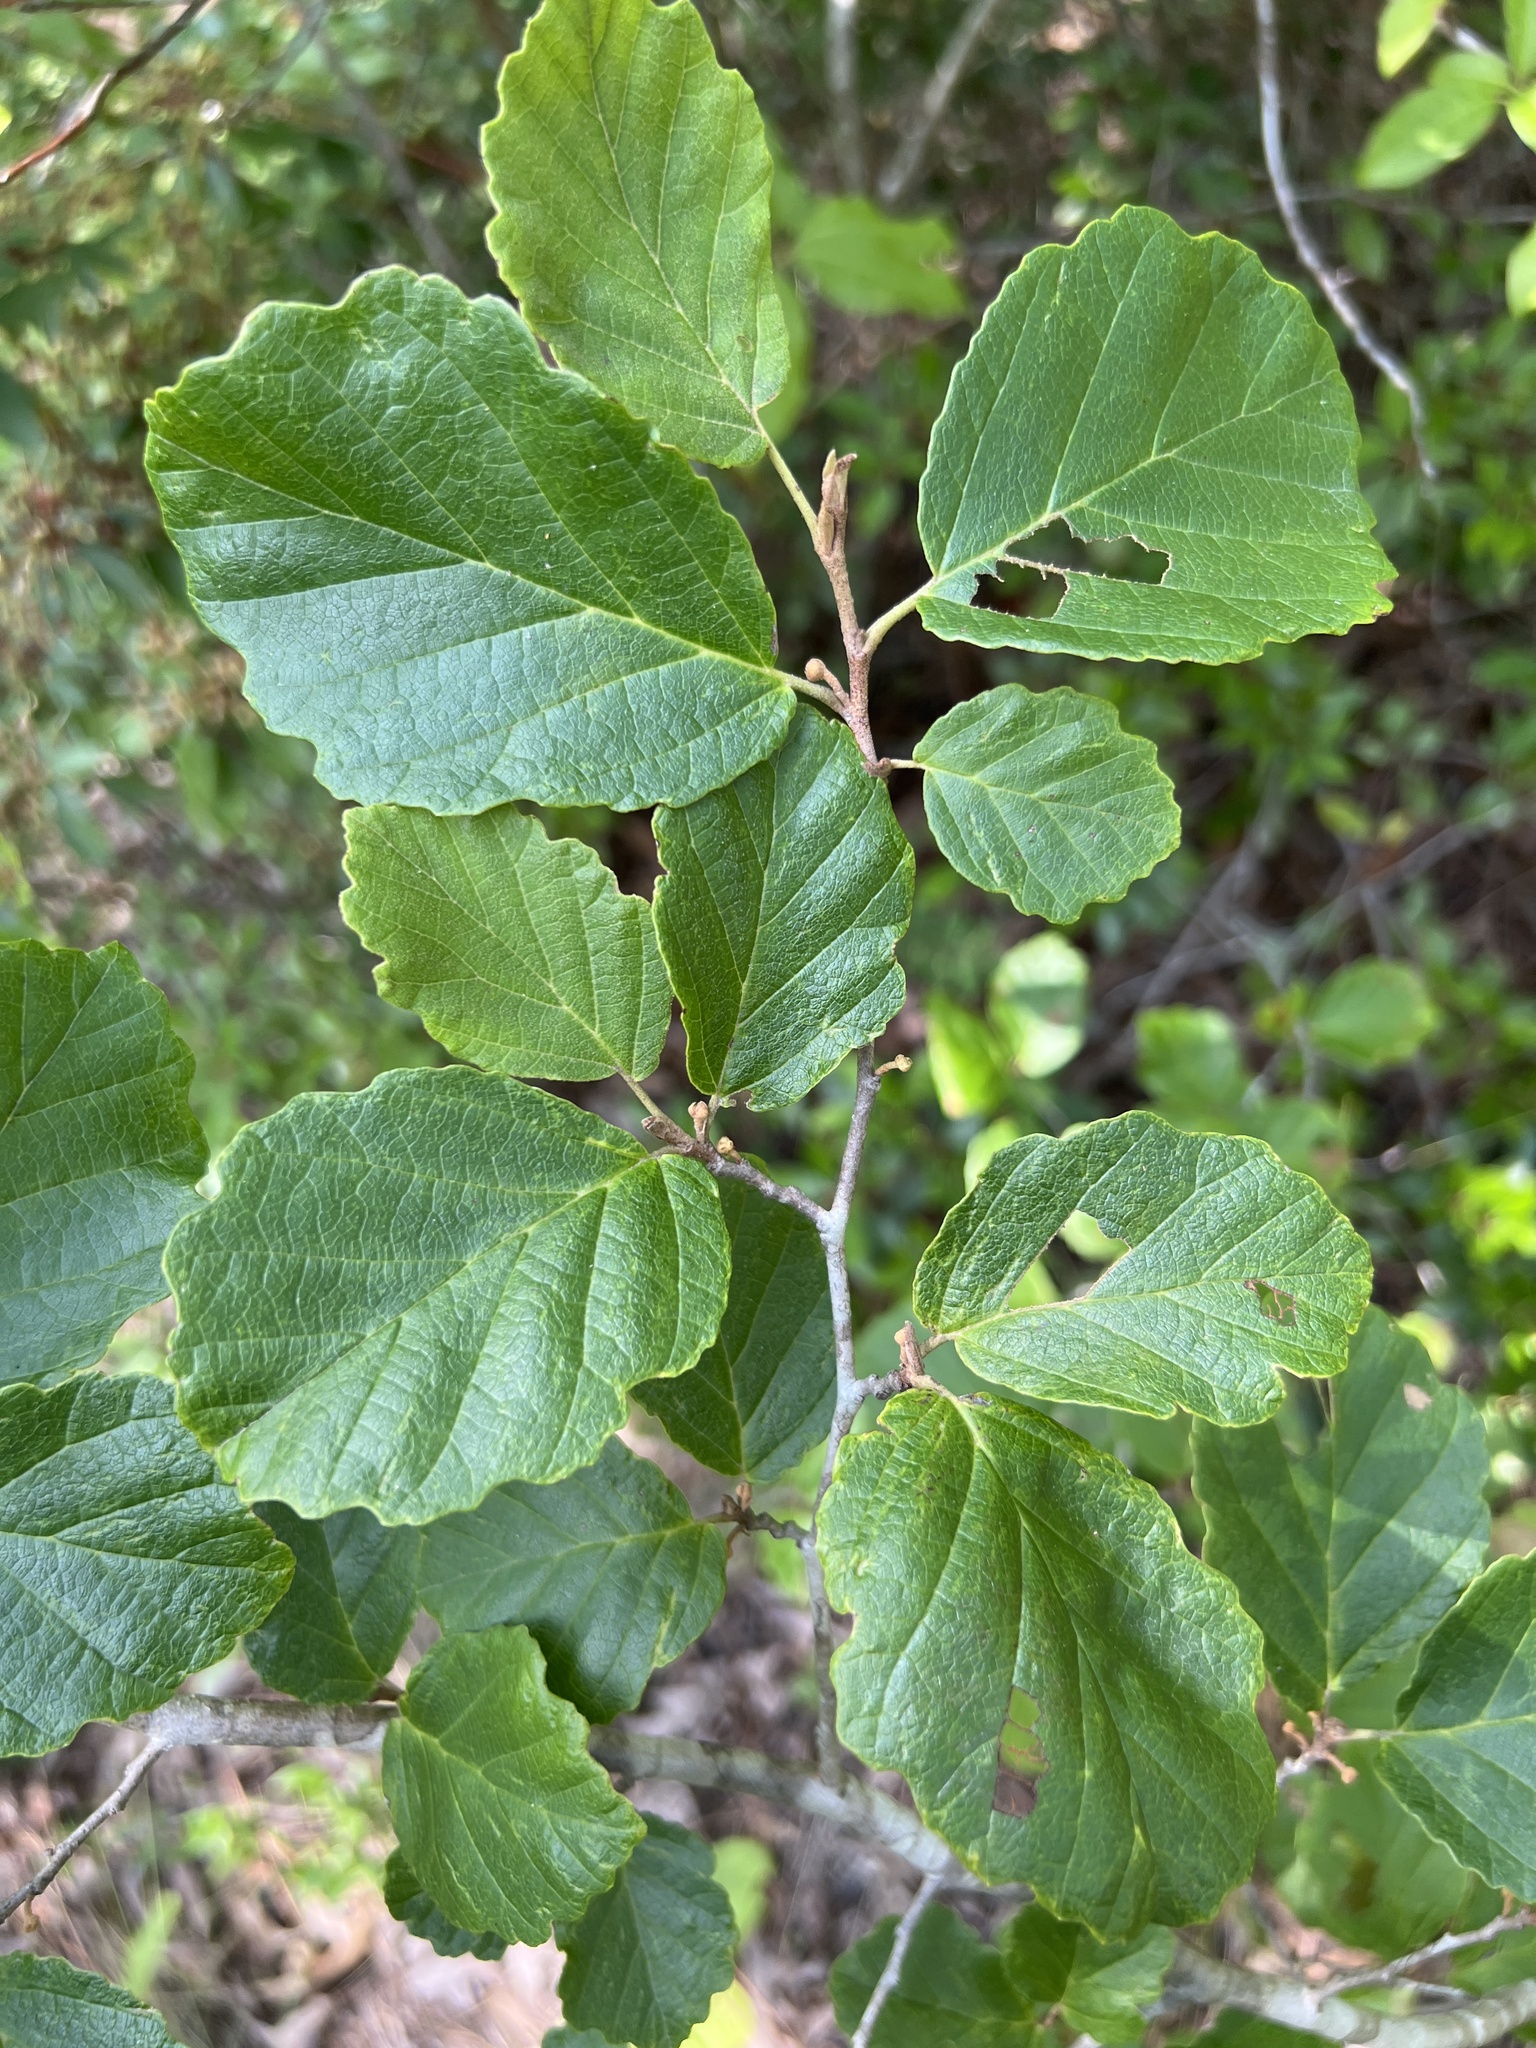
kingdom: Plantae
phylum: Tracheophyta
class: Magnoliopsida
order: Saxifragales
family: Hamamelidaceae
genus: Hamamelis
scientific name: Hamamelis virginiana
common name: Witch-hazel
